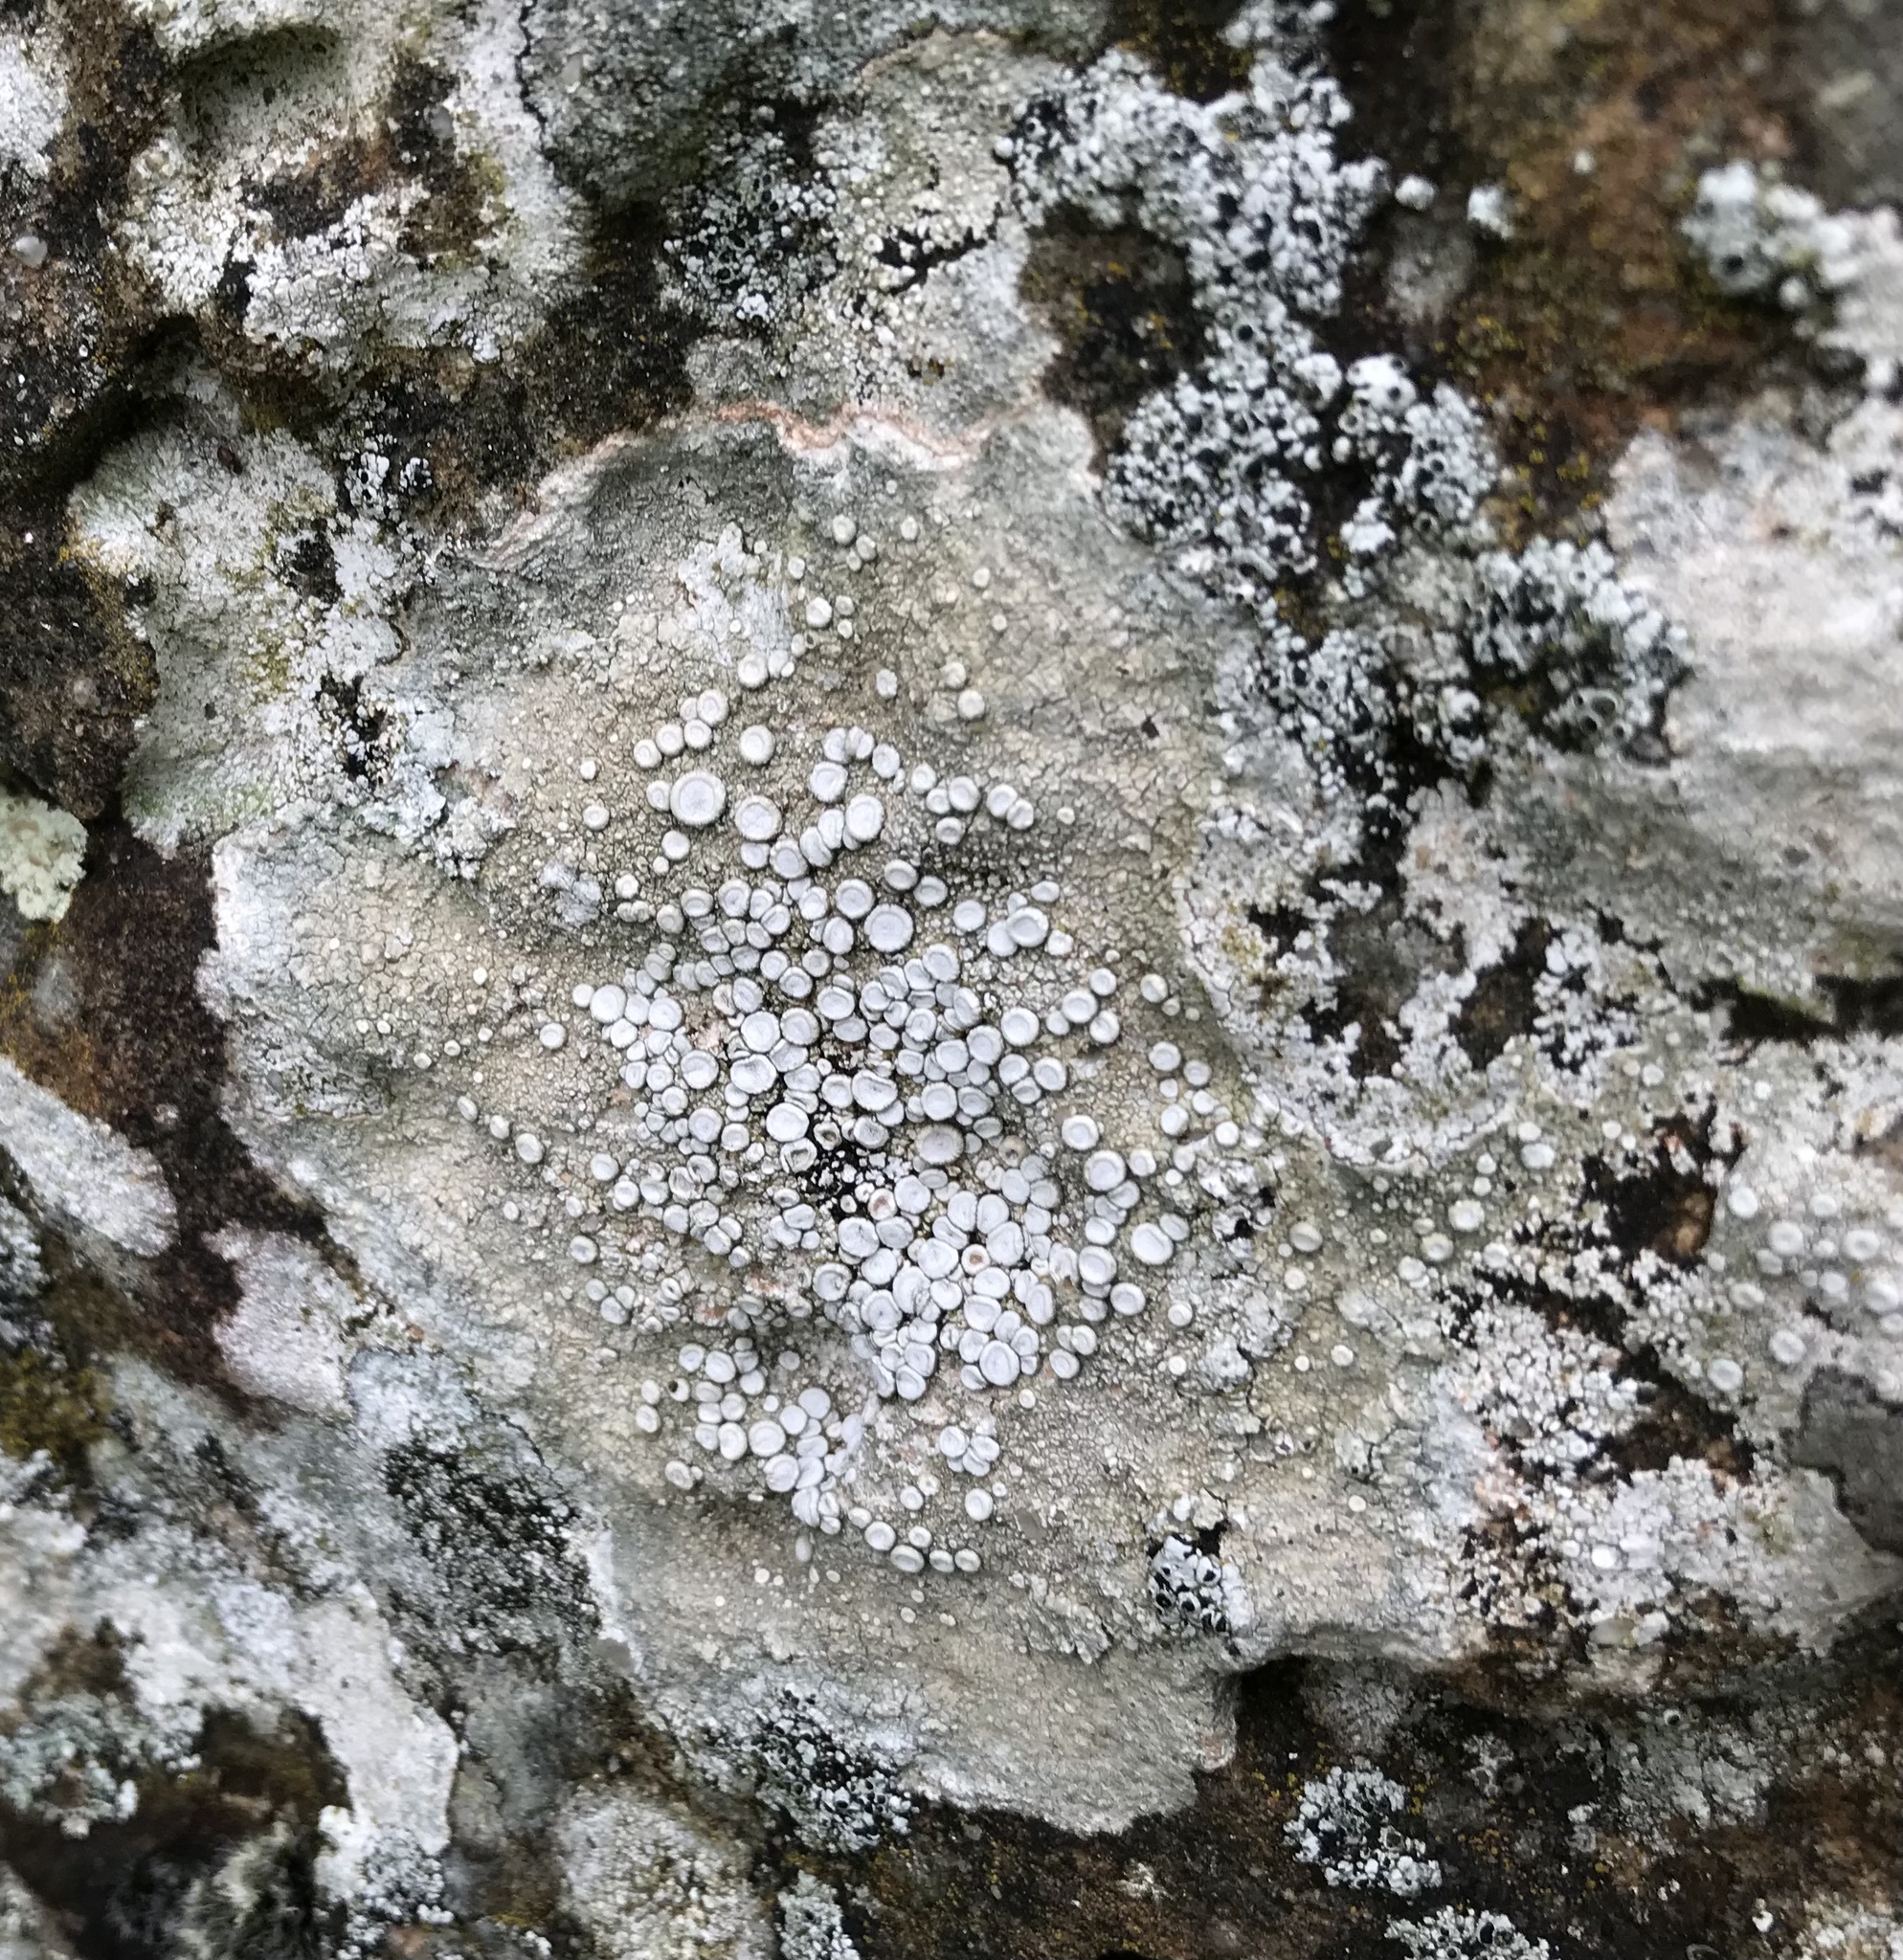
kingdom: Fungi
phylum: Ascomycota
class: Lecanoromycetes
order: Pertusariales
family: Ochrolechiaceae
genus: Ochrolechia
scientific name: Ochrolechia parella
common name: Crab's eye lichen
